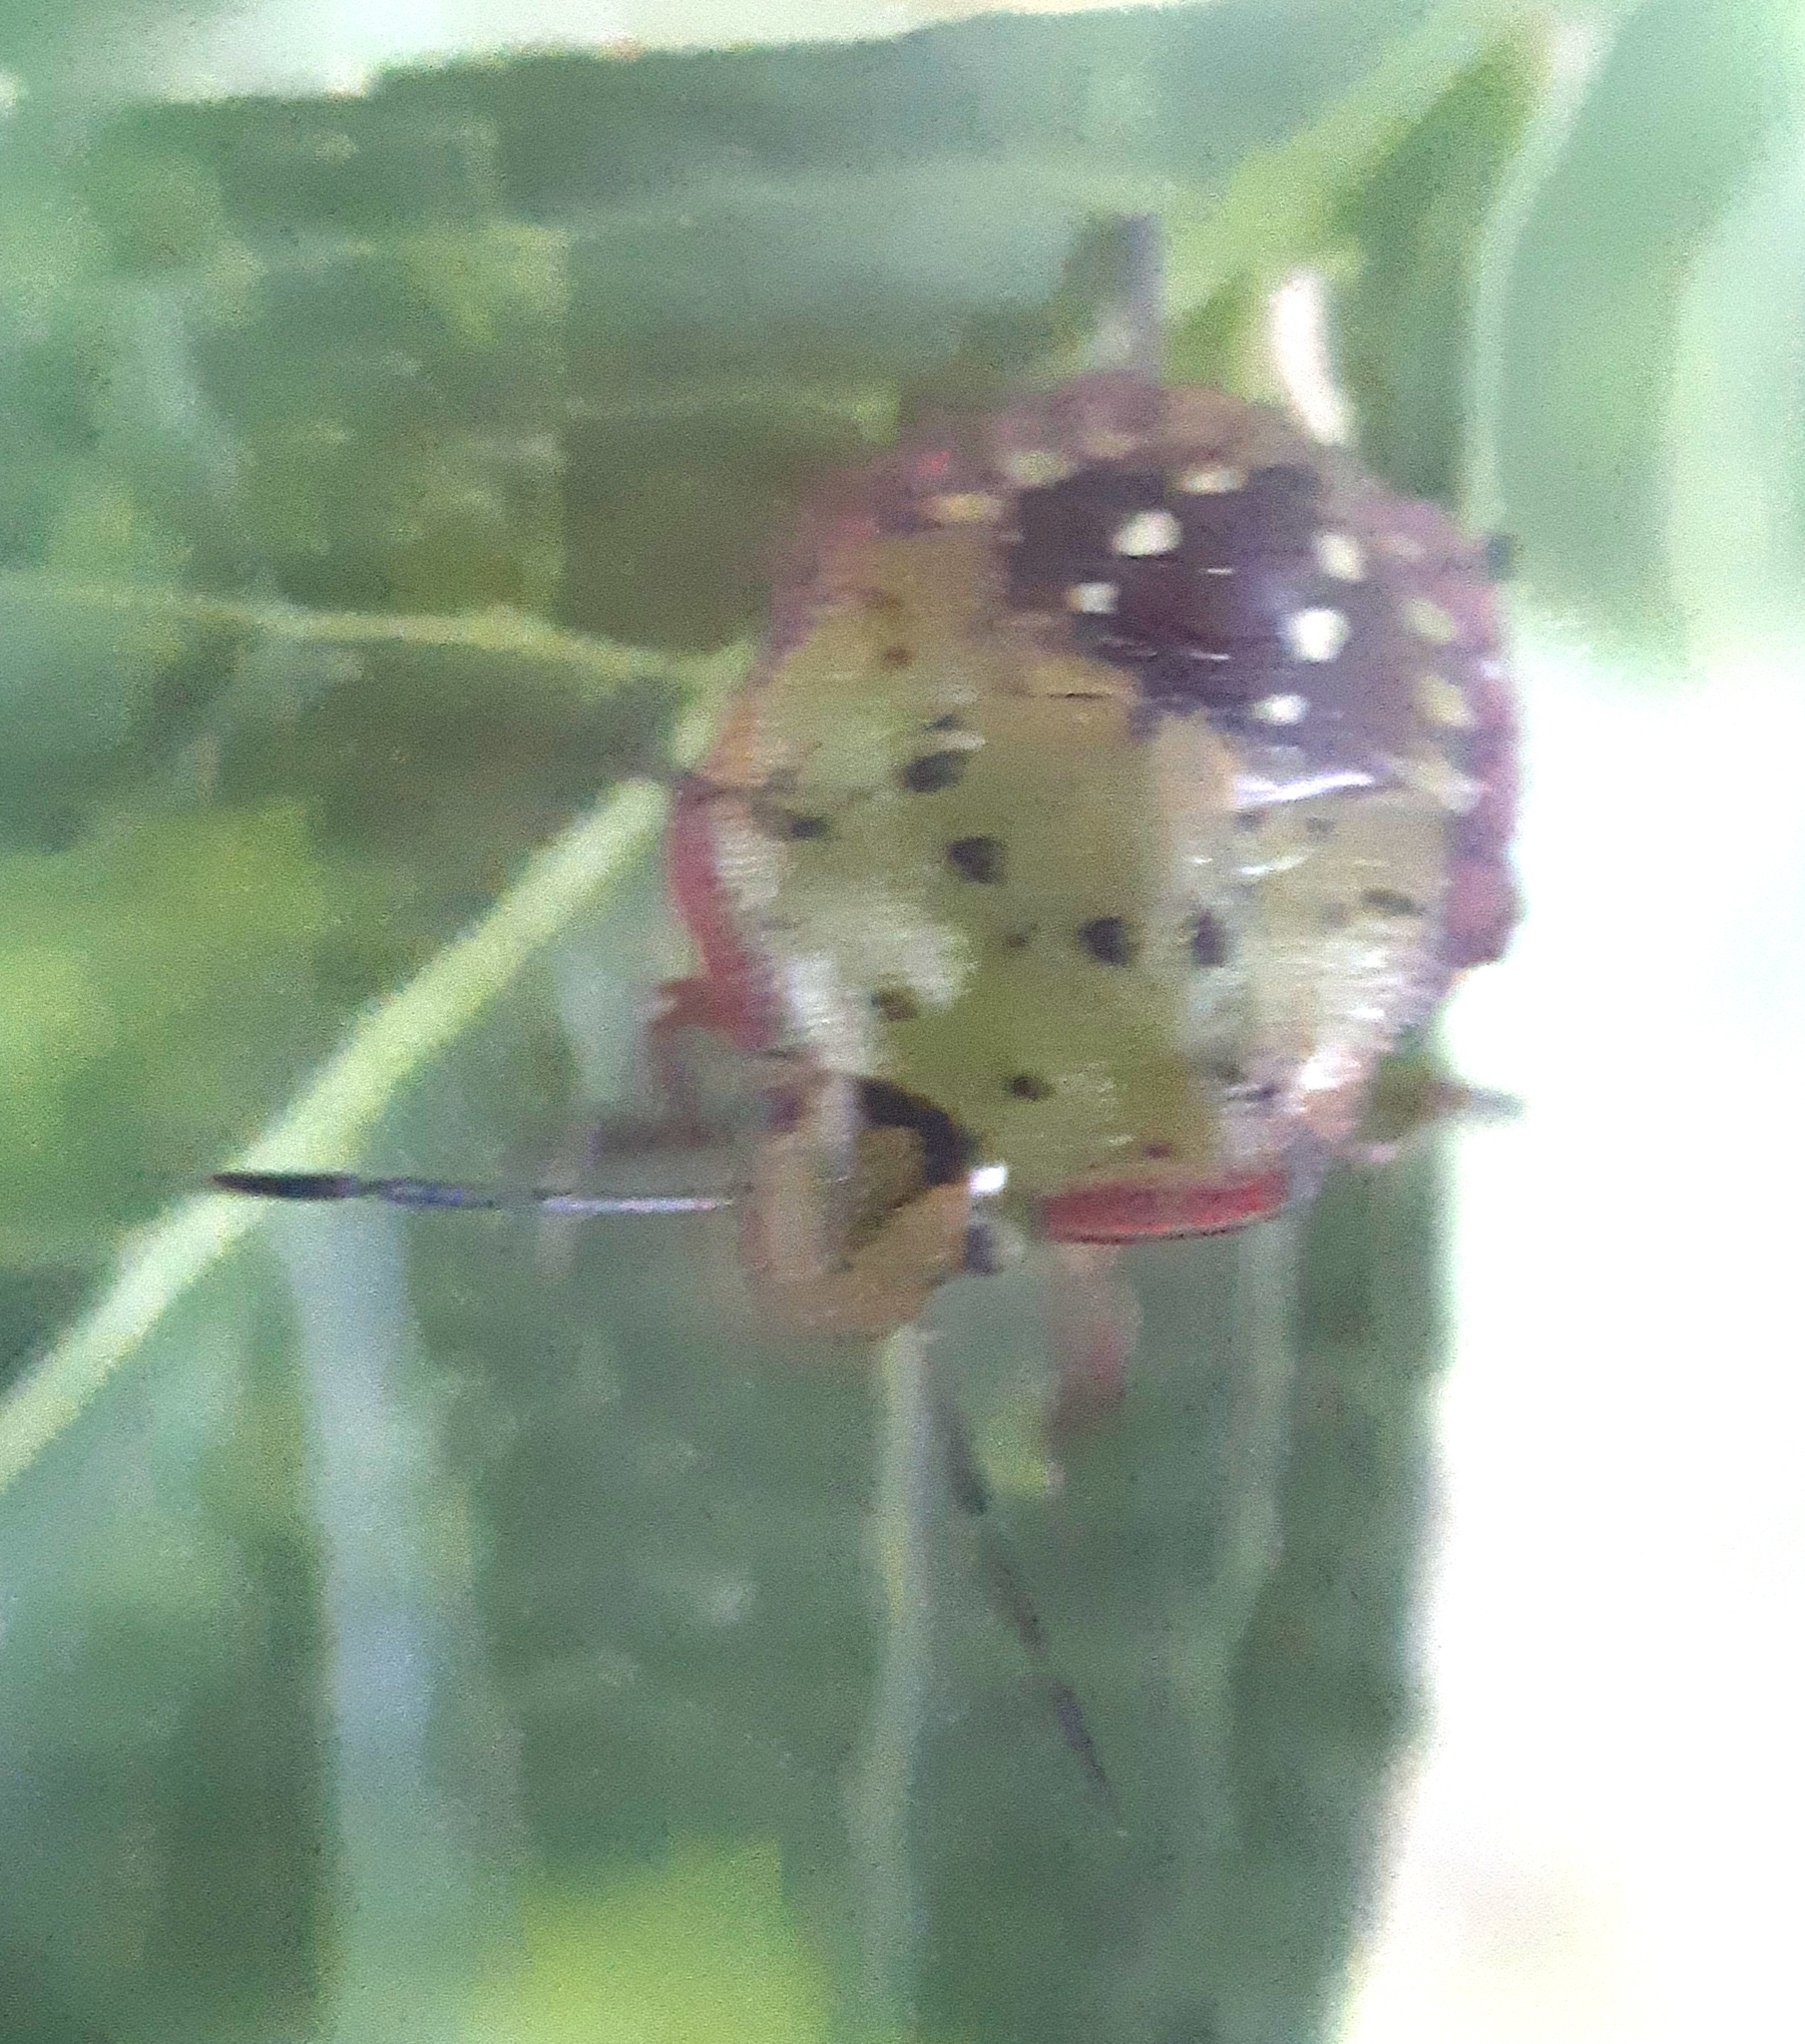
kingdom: Animalia
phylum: Arthropoda
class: Insecta
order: Hemiptera
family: Pentatomidae
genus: Nezara
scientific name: Nezara viridula
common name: Southern green stink bug
